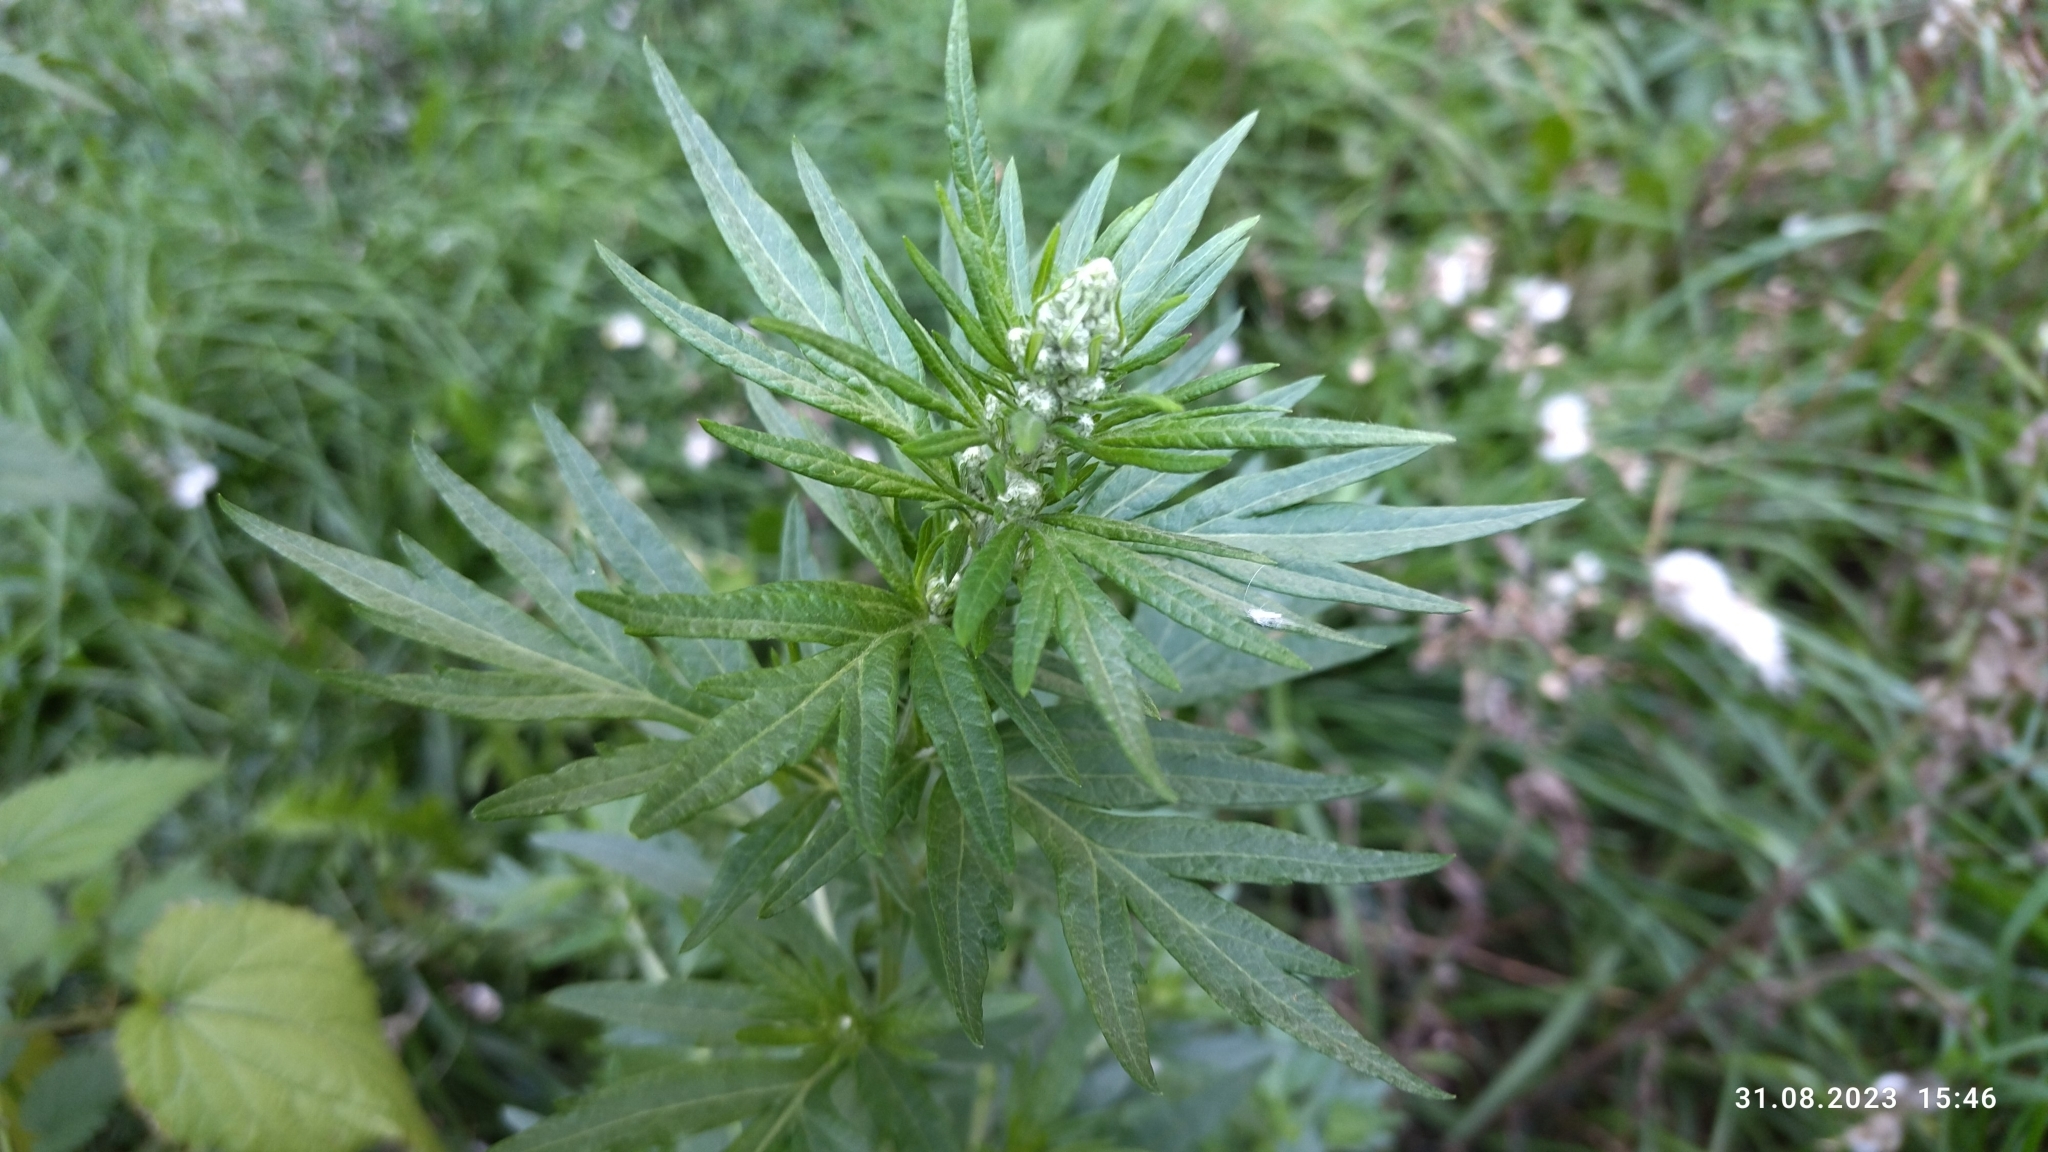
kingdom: Plantae
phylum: Tracheophyta
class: Magnoliopsida
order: Asterales
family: Asteraceae
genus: Artemisia
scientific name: Artemisia vulgaris
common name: Mugwort
